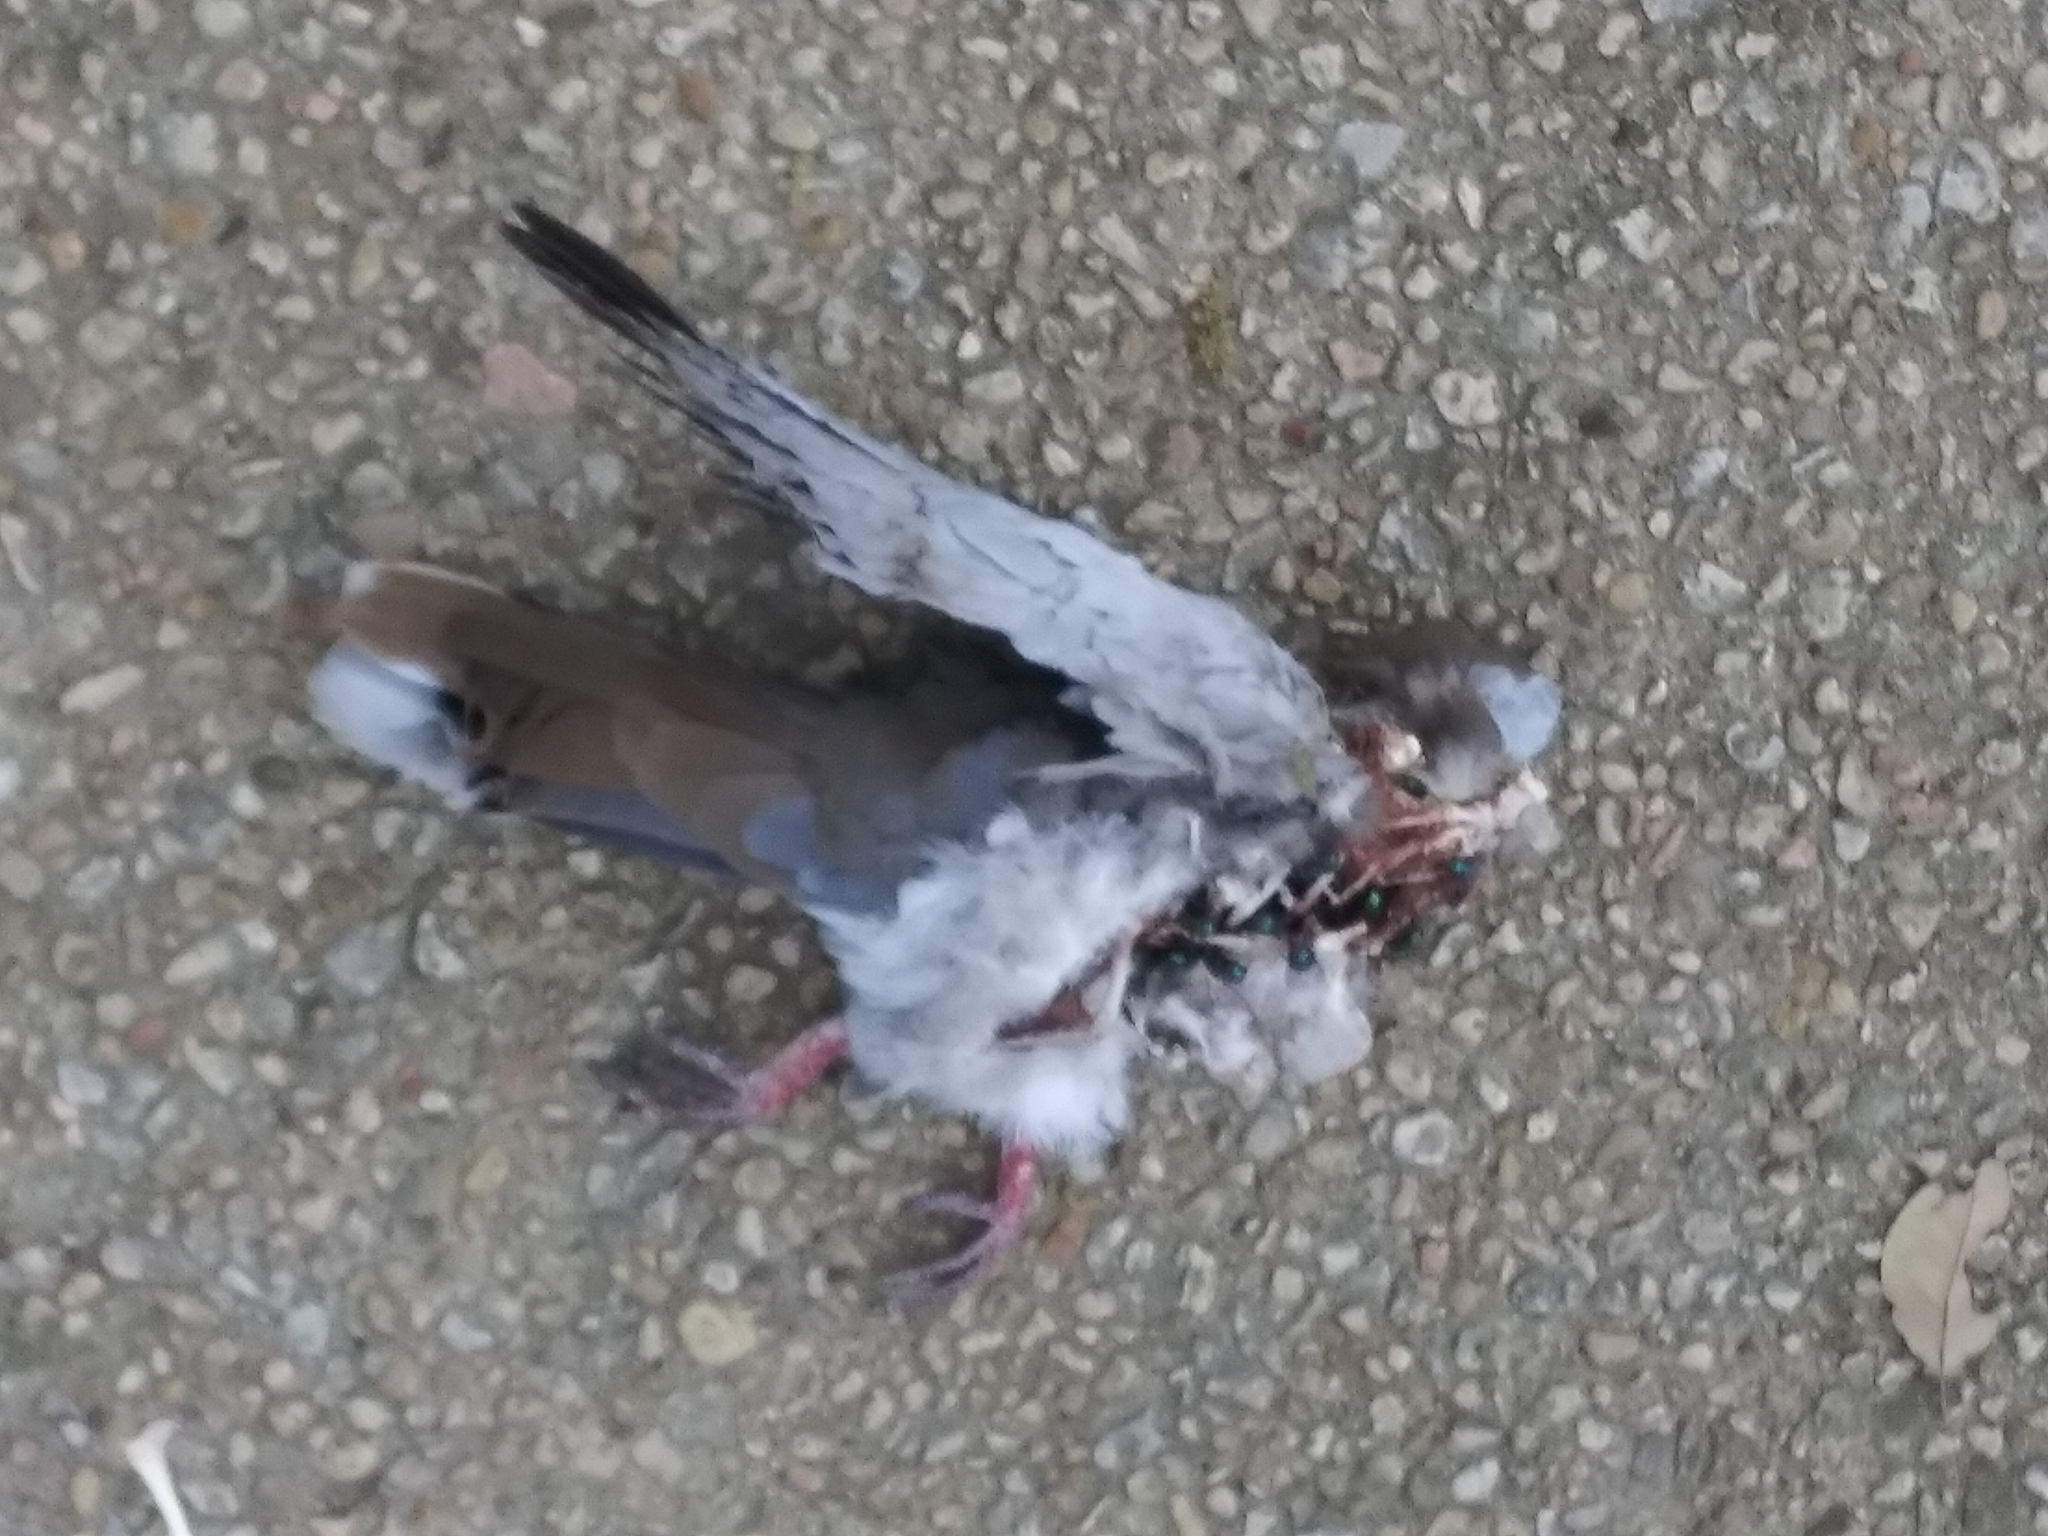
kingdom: Animalia
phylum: Chordata
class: Aves
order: Columbiformes
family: Columbidae
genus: Zenaida
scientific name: Zenaida asiatica
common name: White-winged dove
